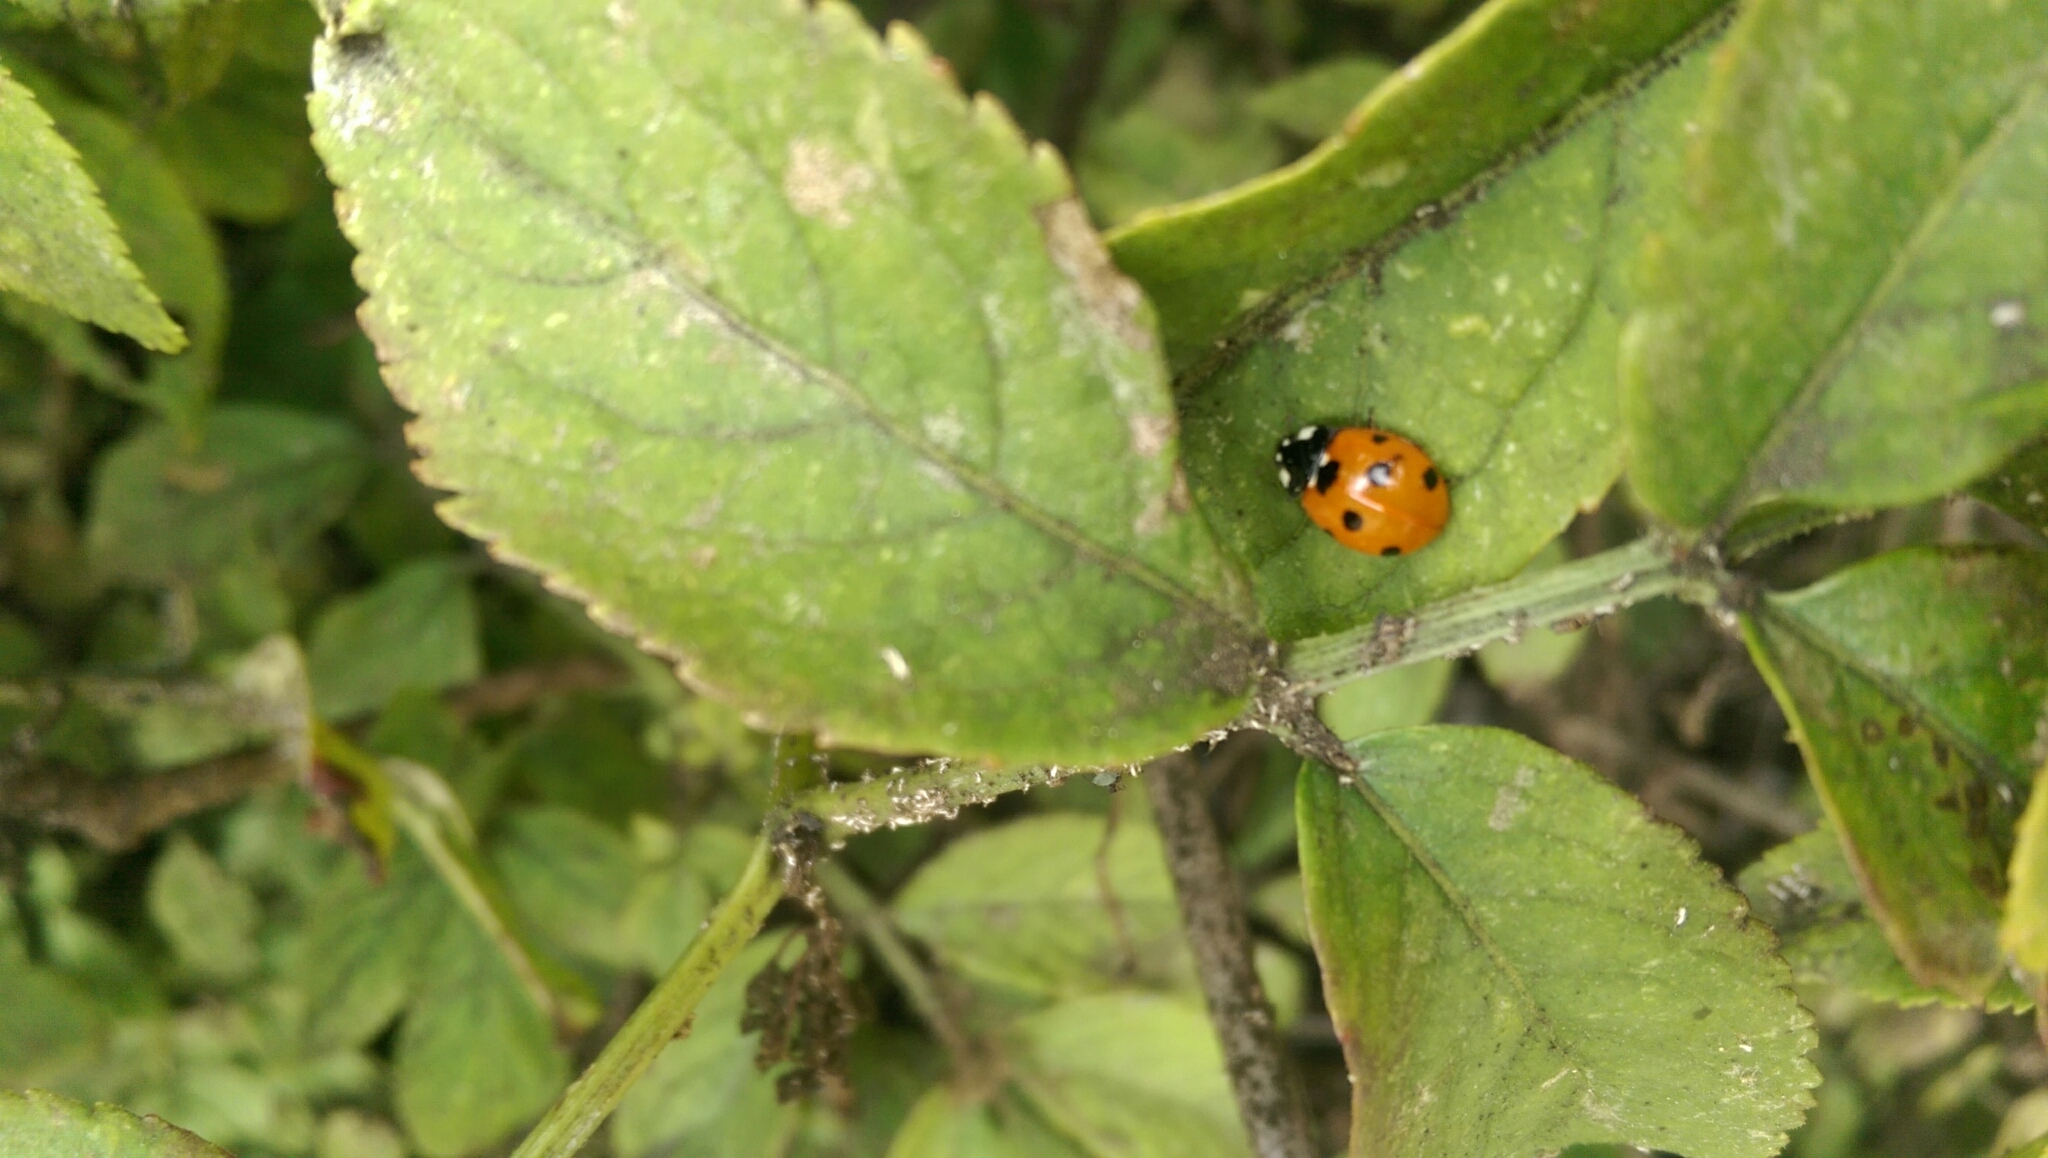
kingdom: Animalia
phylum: Arthropoda
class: Insecta
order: Coleoptera
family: Coccinellidae
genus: Coccinella
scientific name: Coccinella septempunctata
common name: Sevenspotted lady beetle
